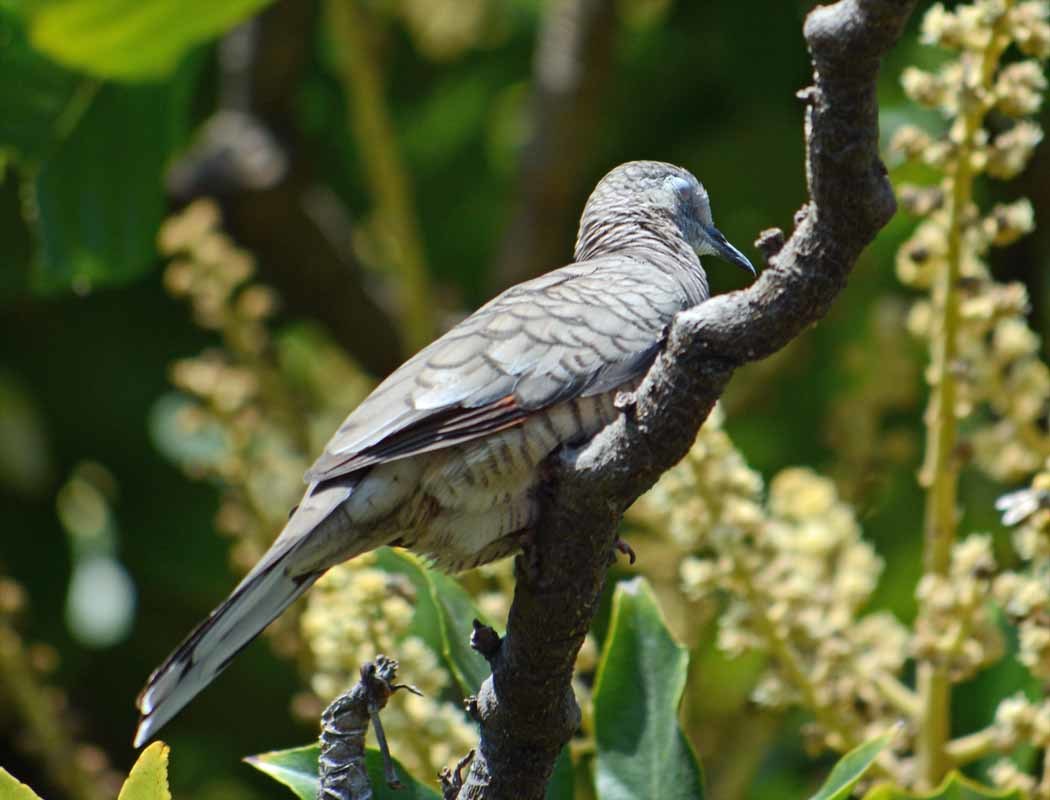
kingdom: Animalia
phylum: Chordata
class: Aves
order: Columbiformes
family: Columbidae
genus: Columbina
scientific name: Columbina inca
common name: Inca dove
